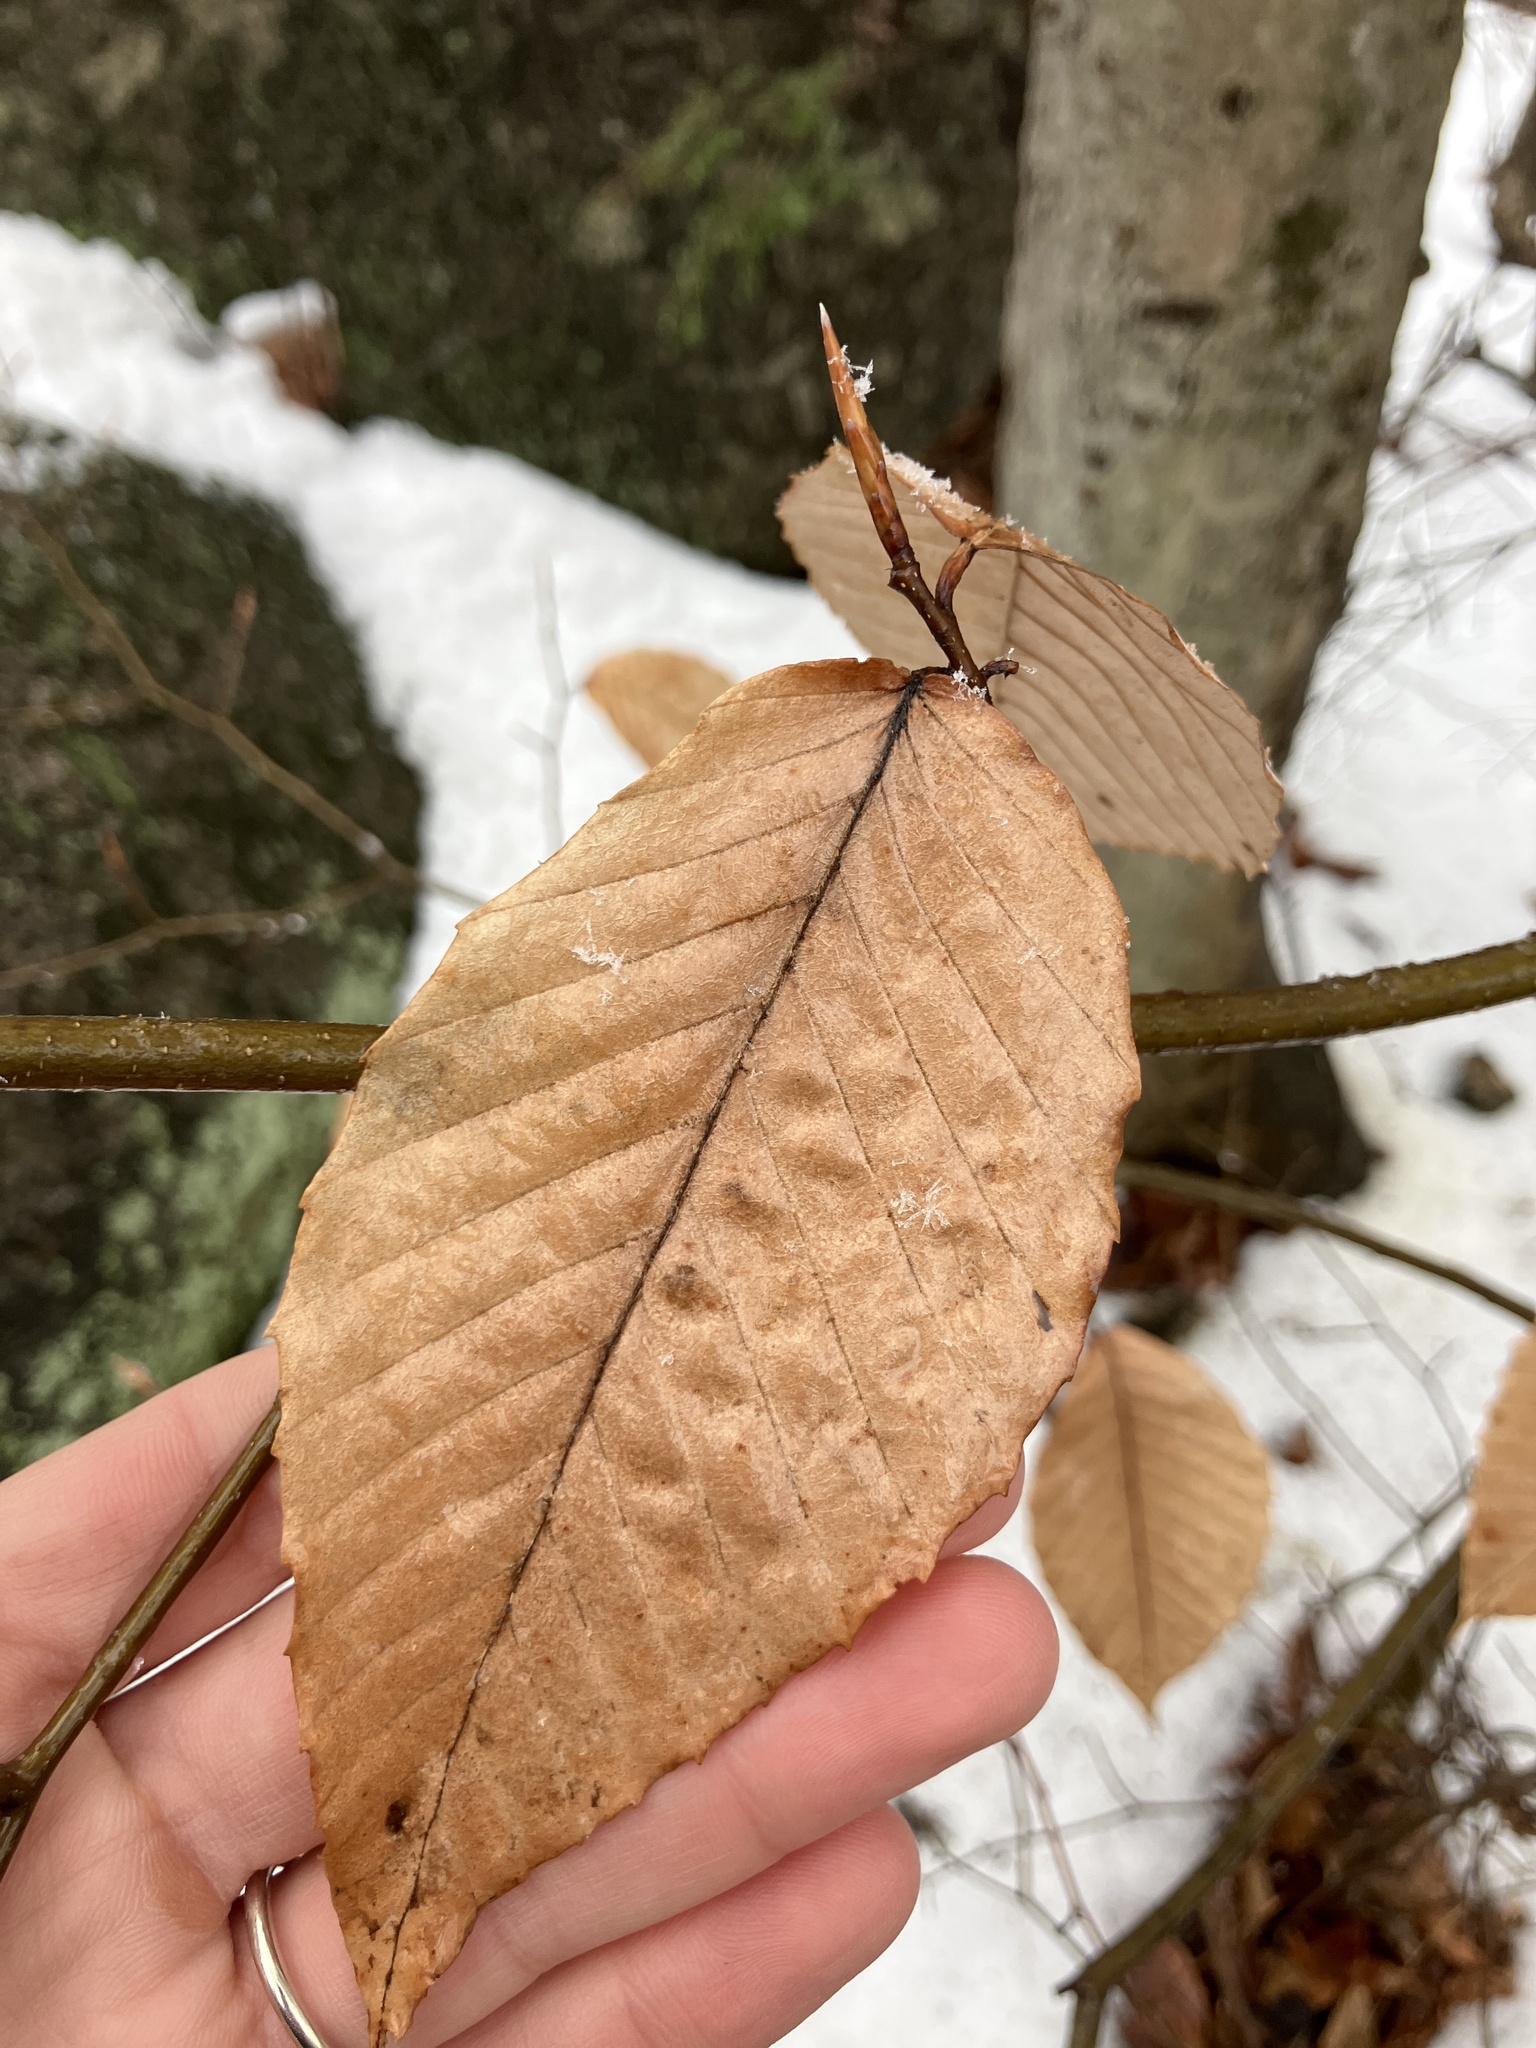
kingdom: Plantae
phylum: Tracheophyta
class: Magnoliopsida
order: Fagales
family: Fagaceae
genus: Fagus
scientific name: Fagus grandifolia
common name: American beech
